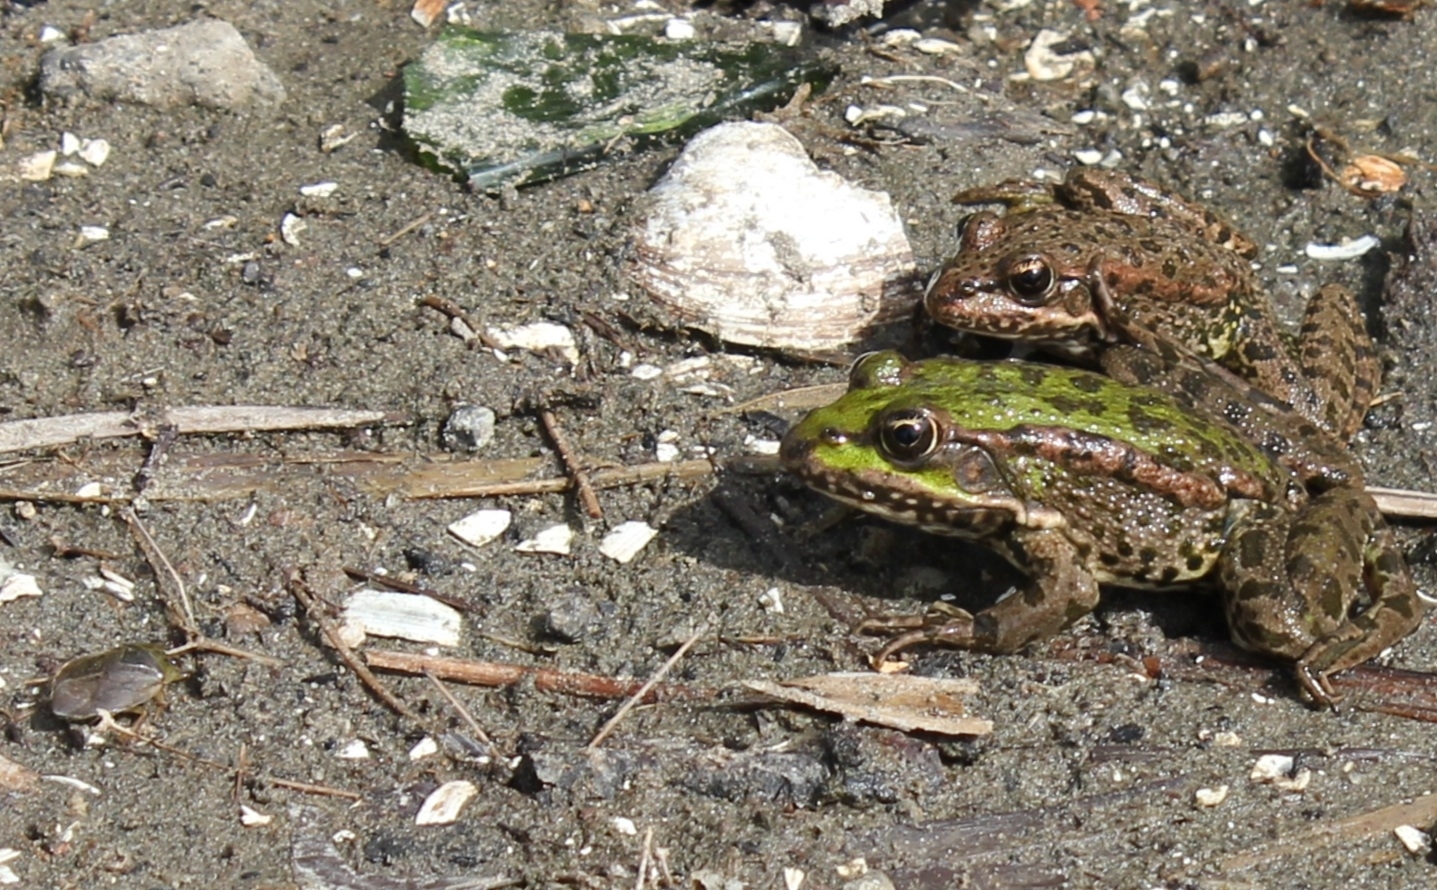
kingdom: Animalia
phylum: Chordata
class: Amphibia
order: Anura
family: Ranidae
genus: Pelophylax
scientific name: Pelophylax ridibundus
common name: Marsh frog
